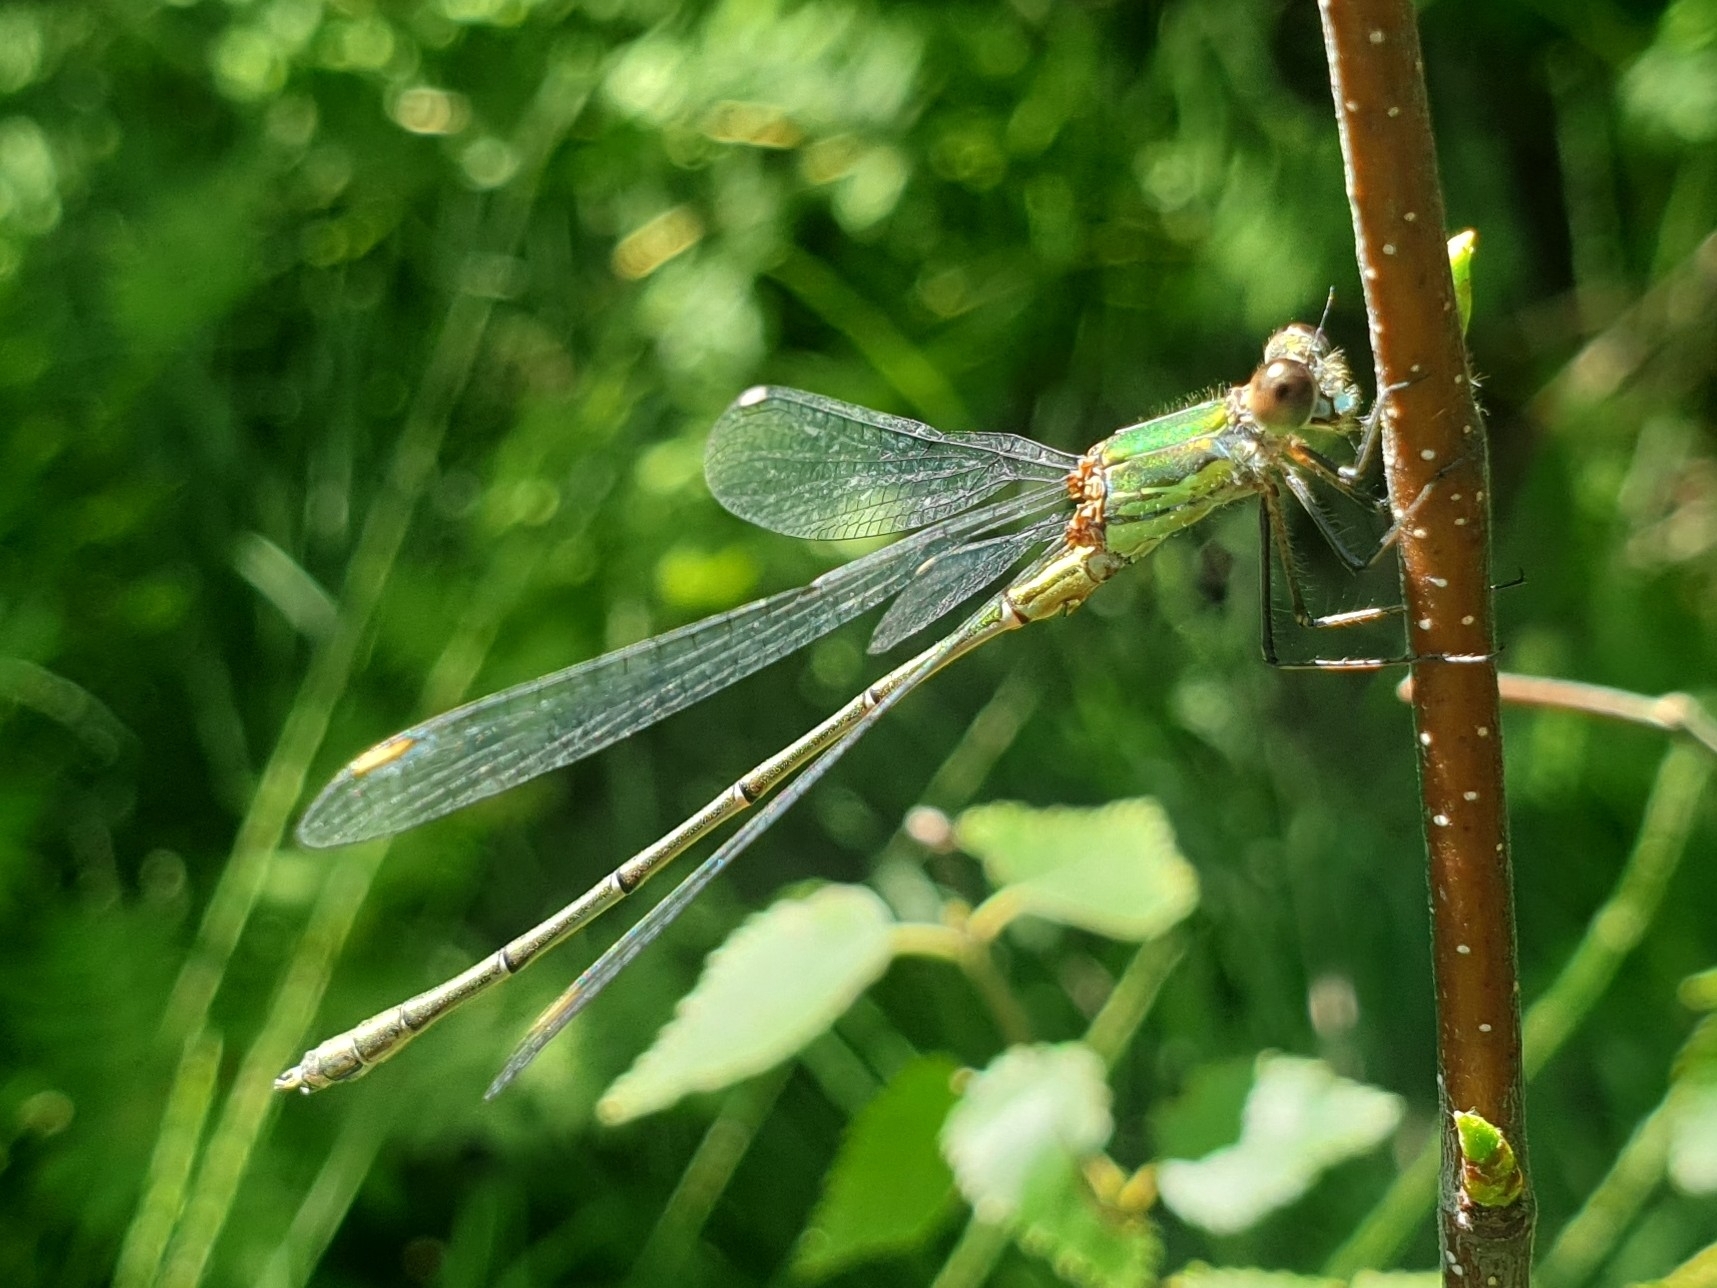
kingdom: Animalia
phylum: Arthropoda
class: Insecta
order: Odonata
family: Lestidae
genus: Chalcolestes
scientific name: Chalcolestes viridis
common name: Green emerald damselfly
